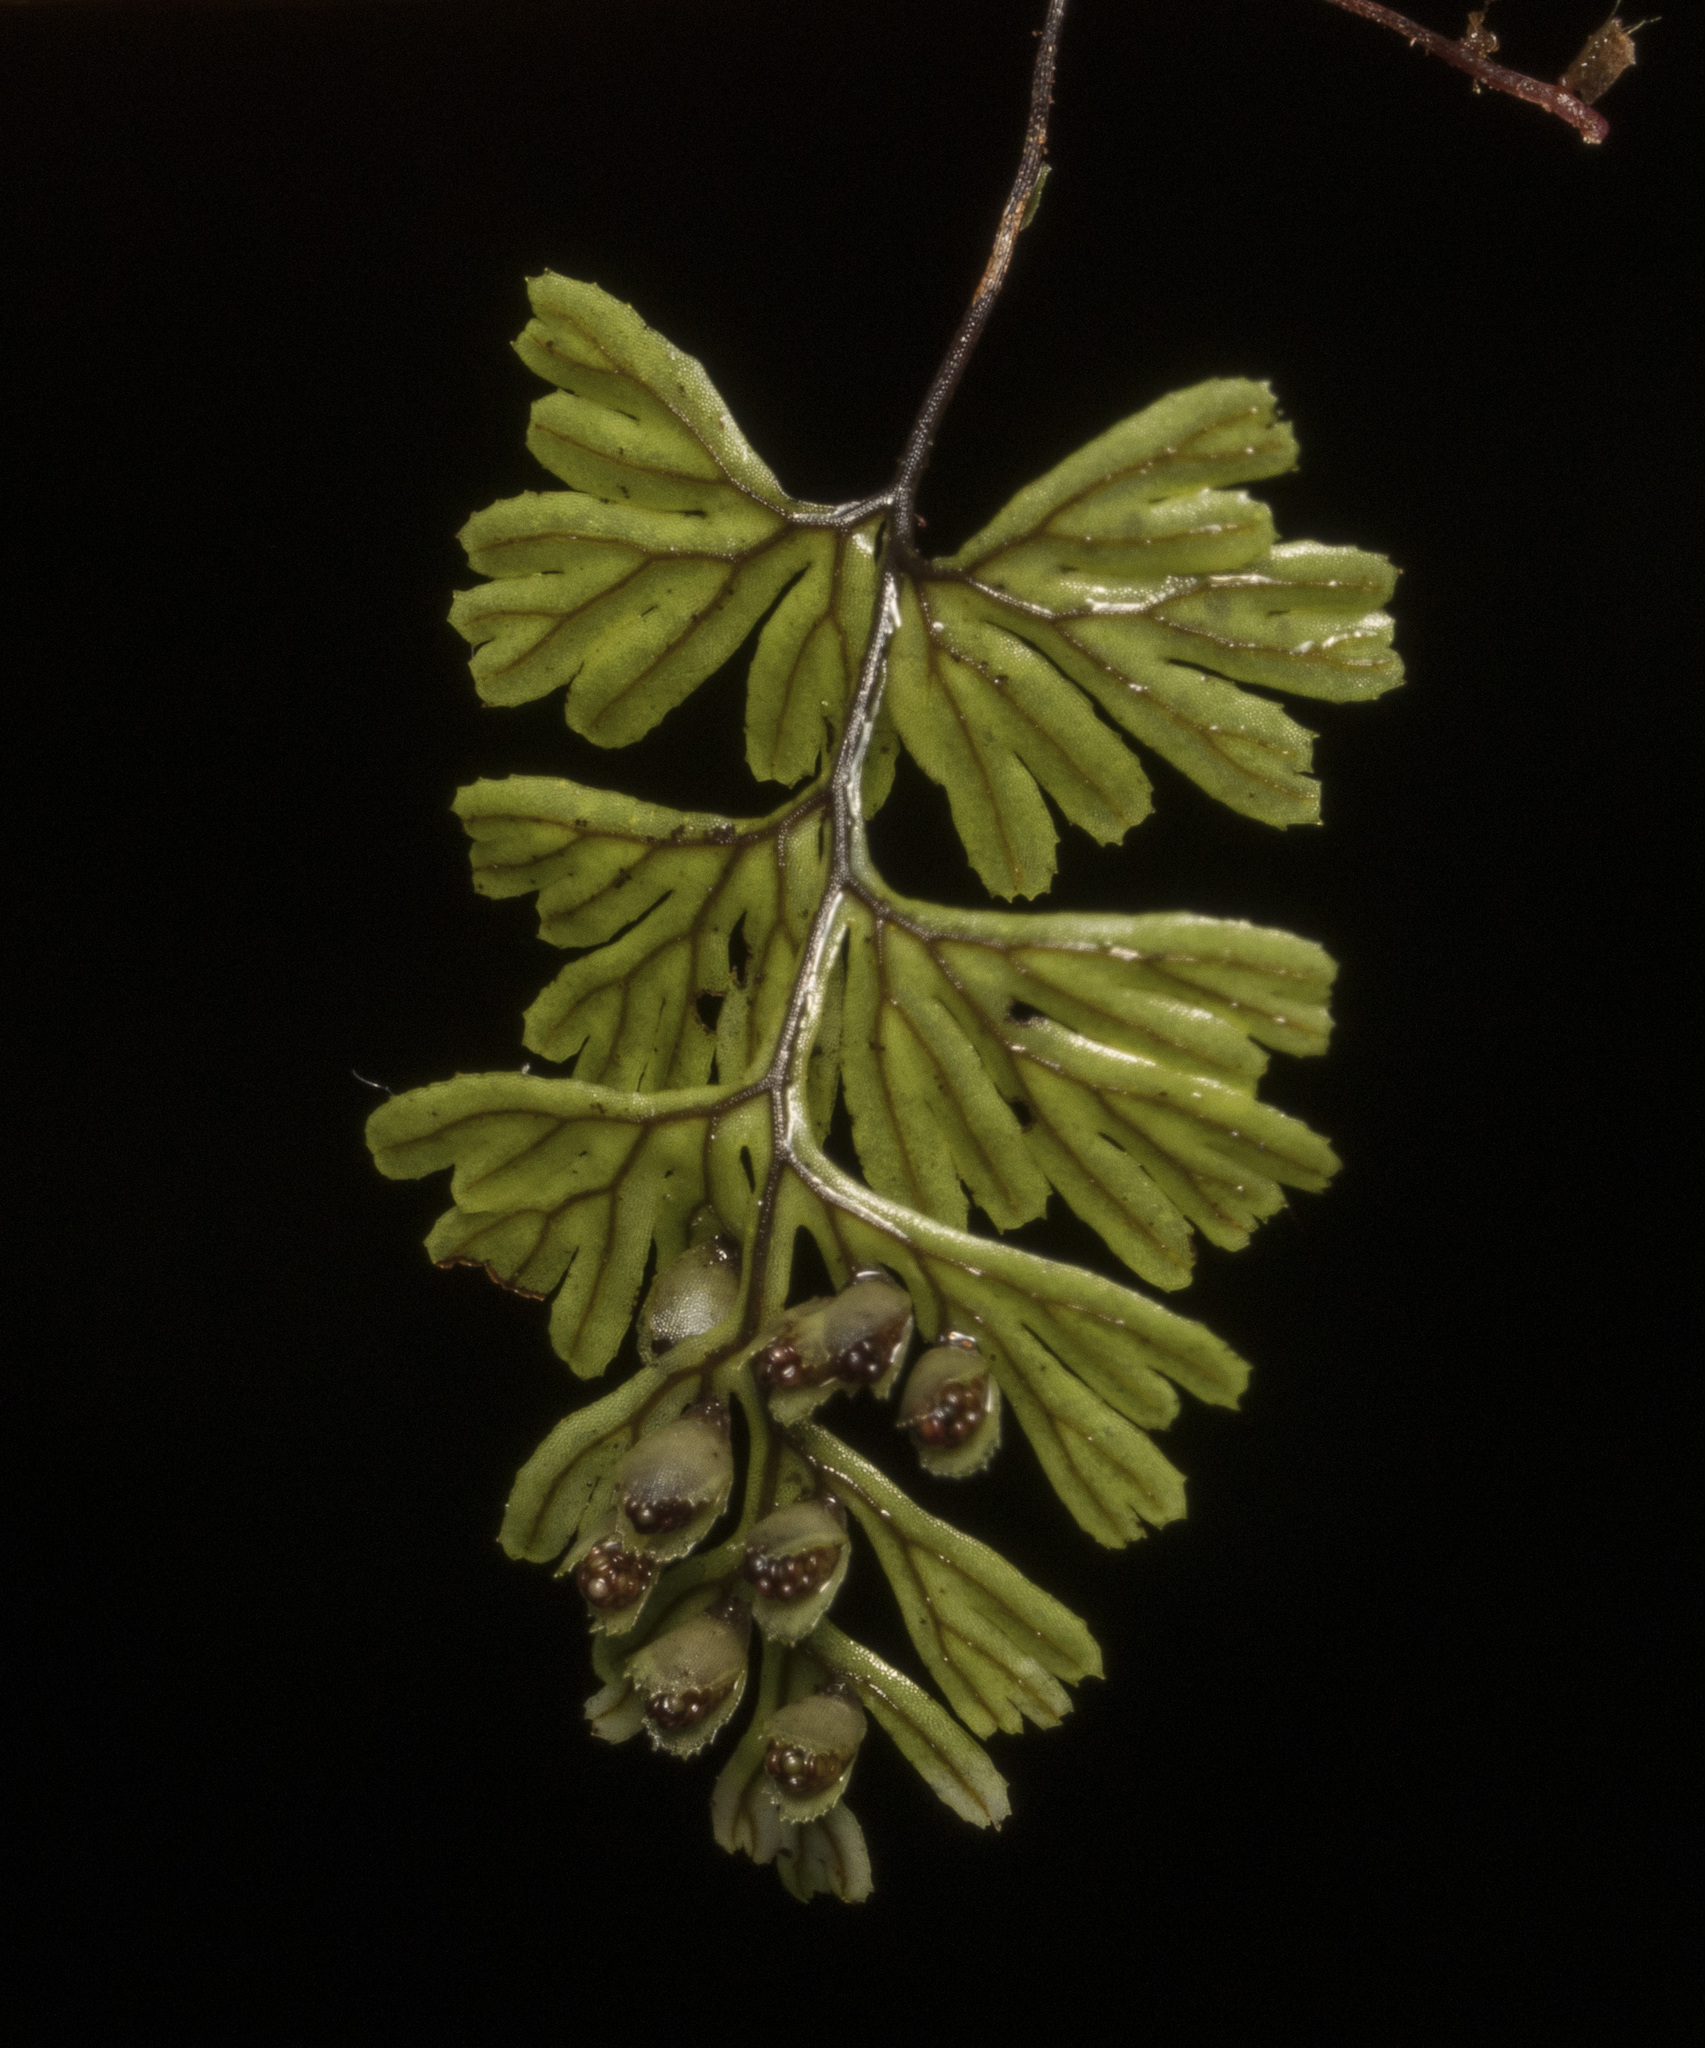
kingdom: Plantae
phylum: Tracheophyta
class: Polypodiopsida
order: Hymenophyllales
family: Hymenophyllaceae
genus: Hymenophyllum
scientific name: Hymenophyllum tunbrigense
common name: Tunbridge filmy fern
